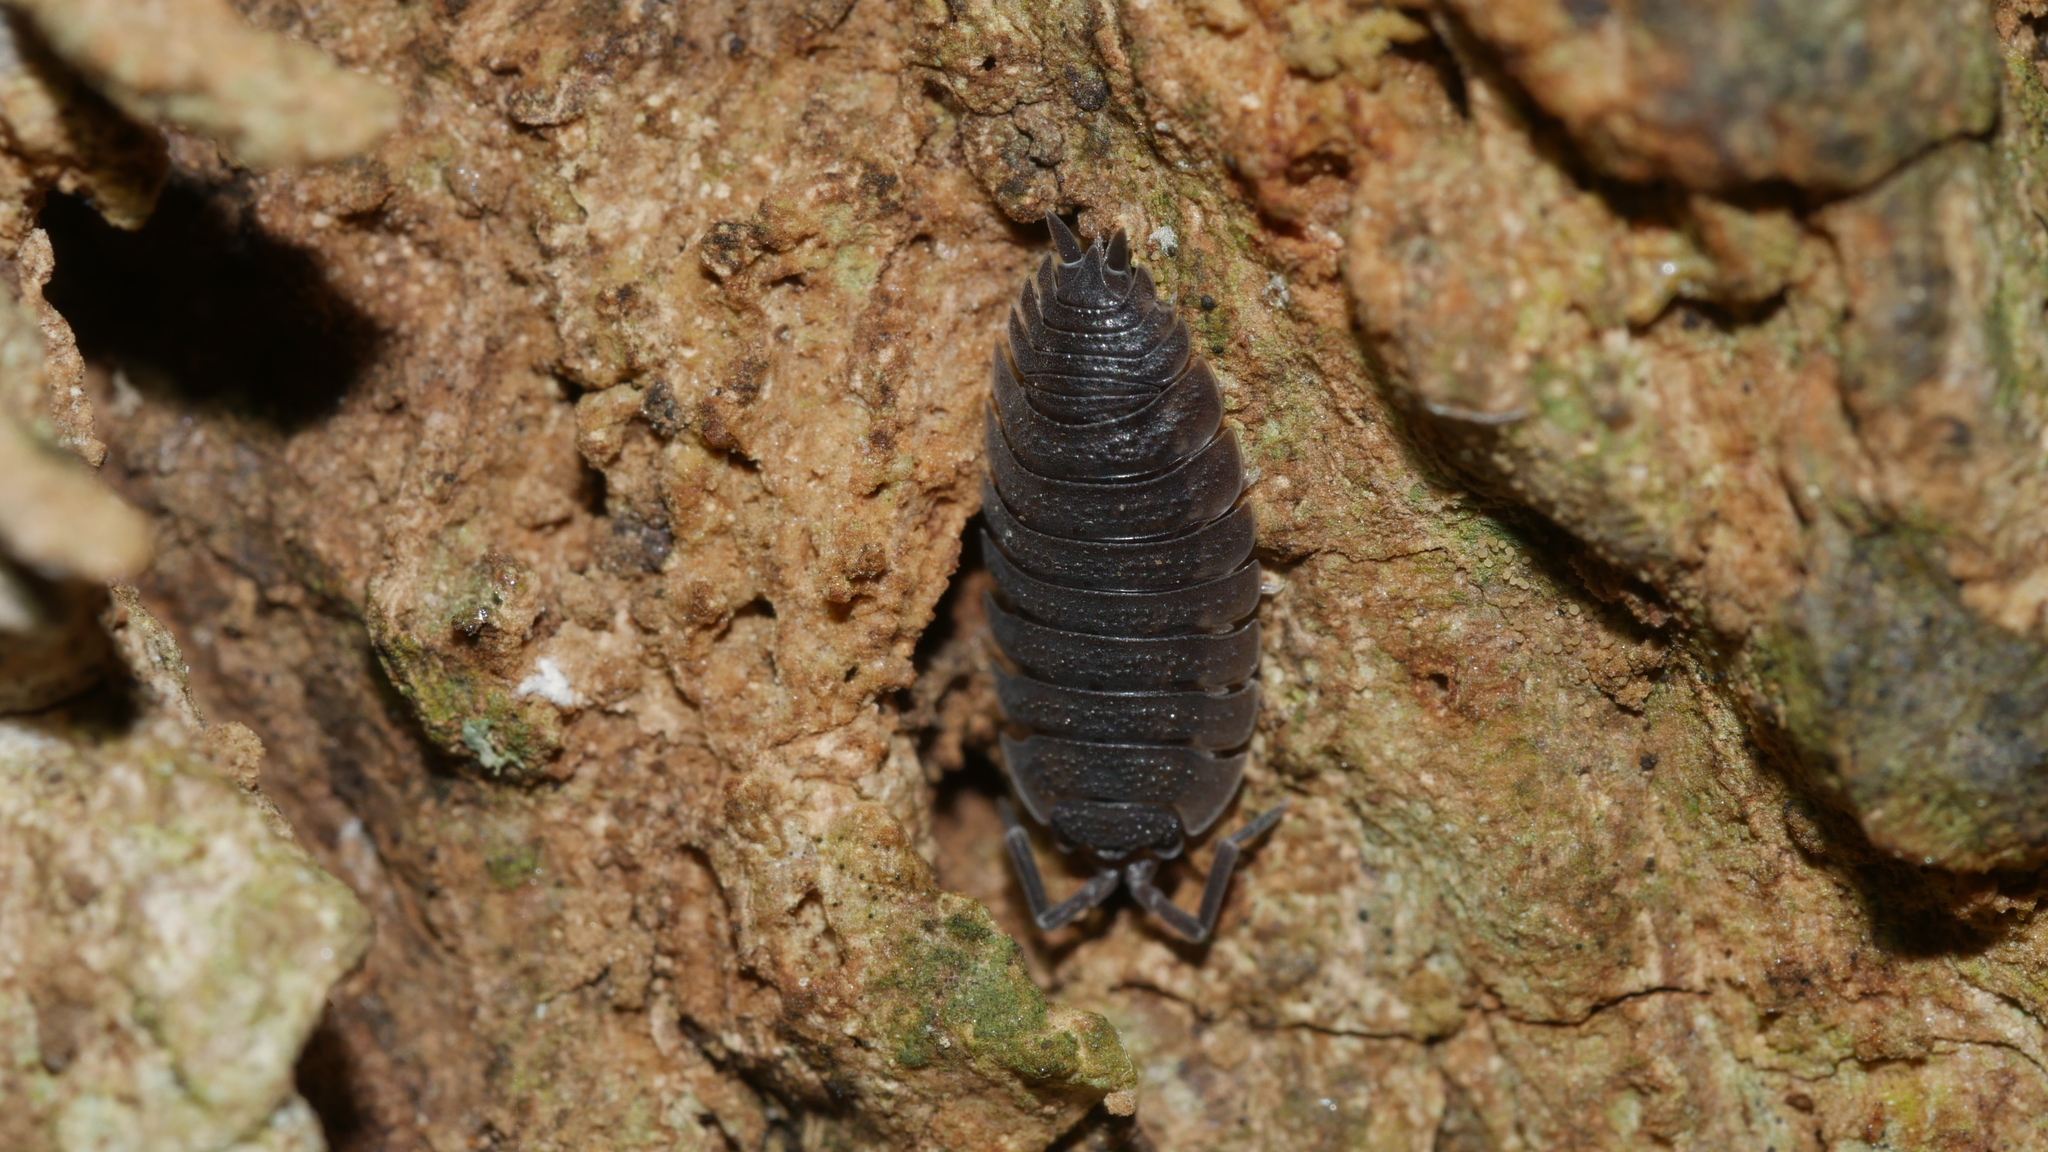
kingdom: Animalia
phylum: Arthropoda
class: Malacostraca
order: Isopoda
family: Porcellionidae
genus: Porcellio
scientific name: Porcellio scaber
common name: Common rough woodlouse
